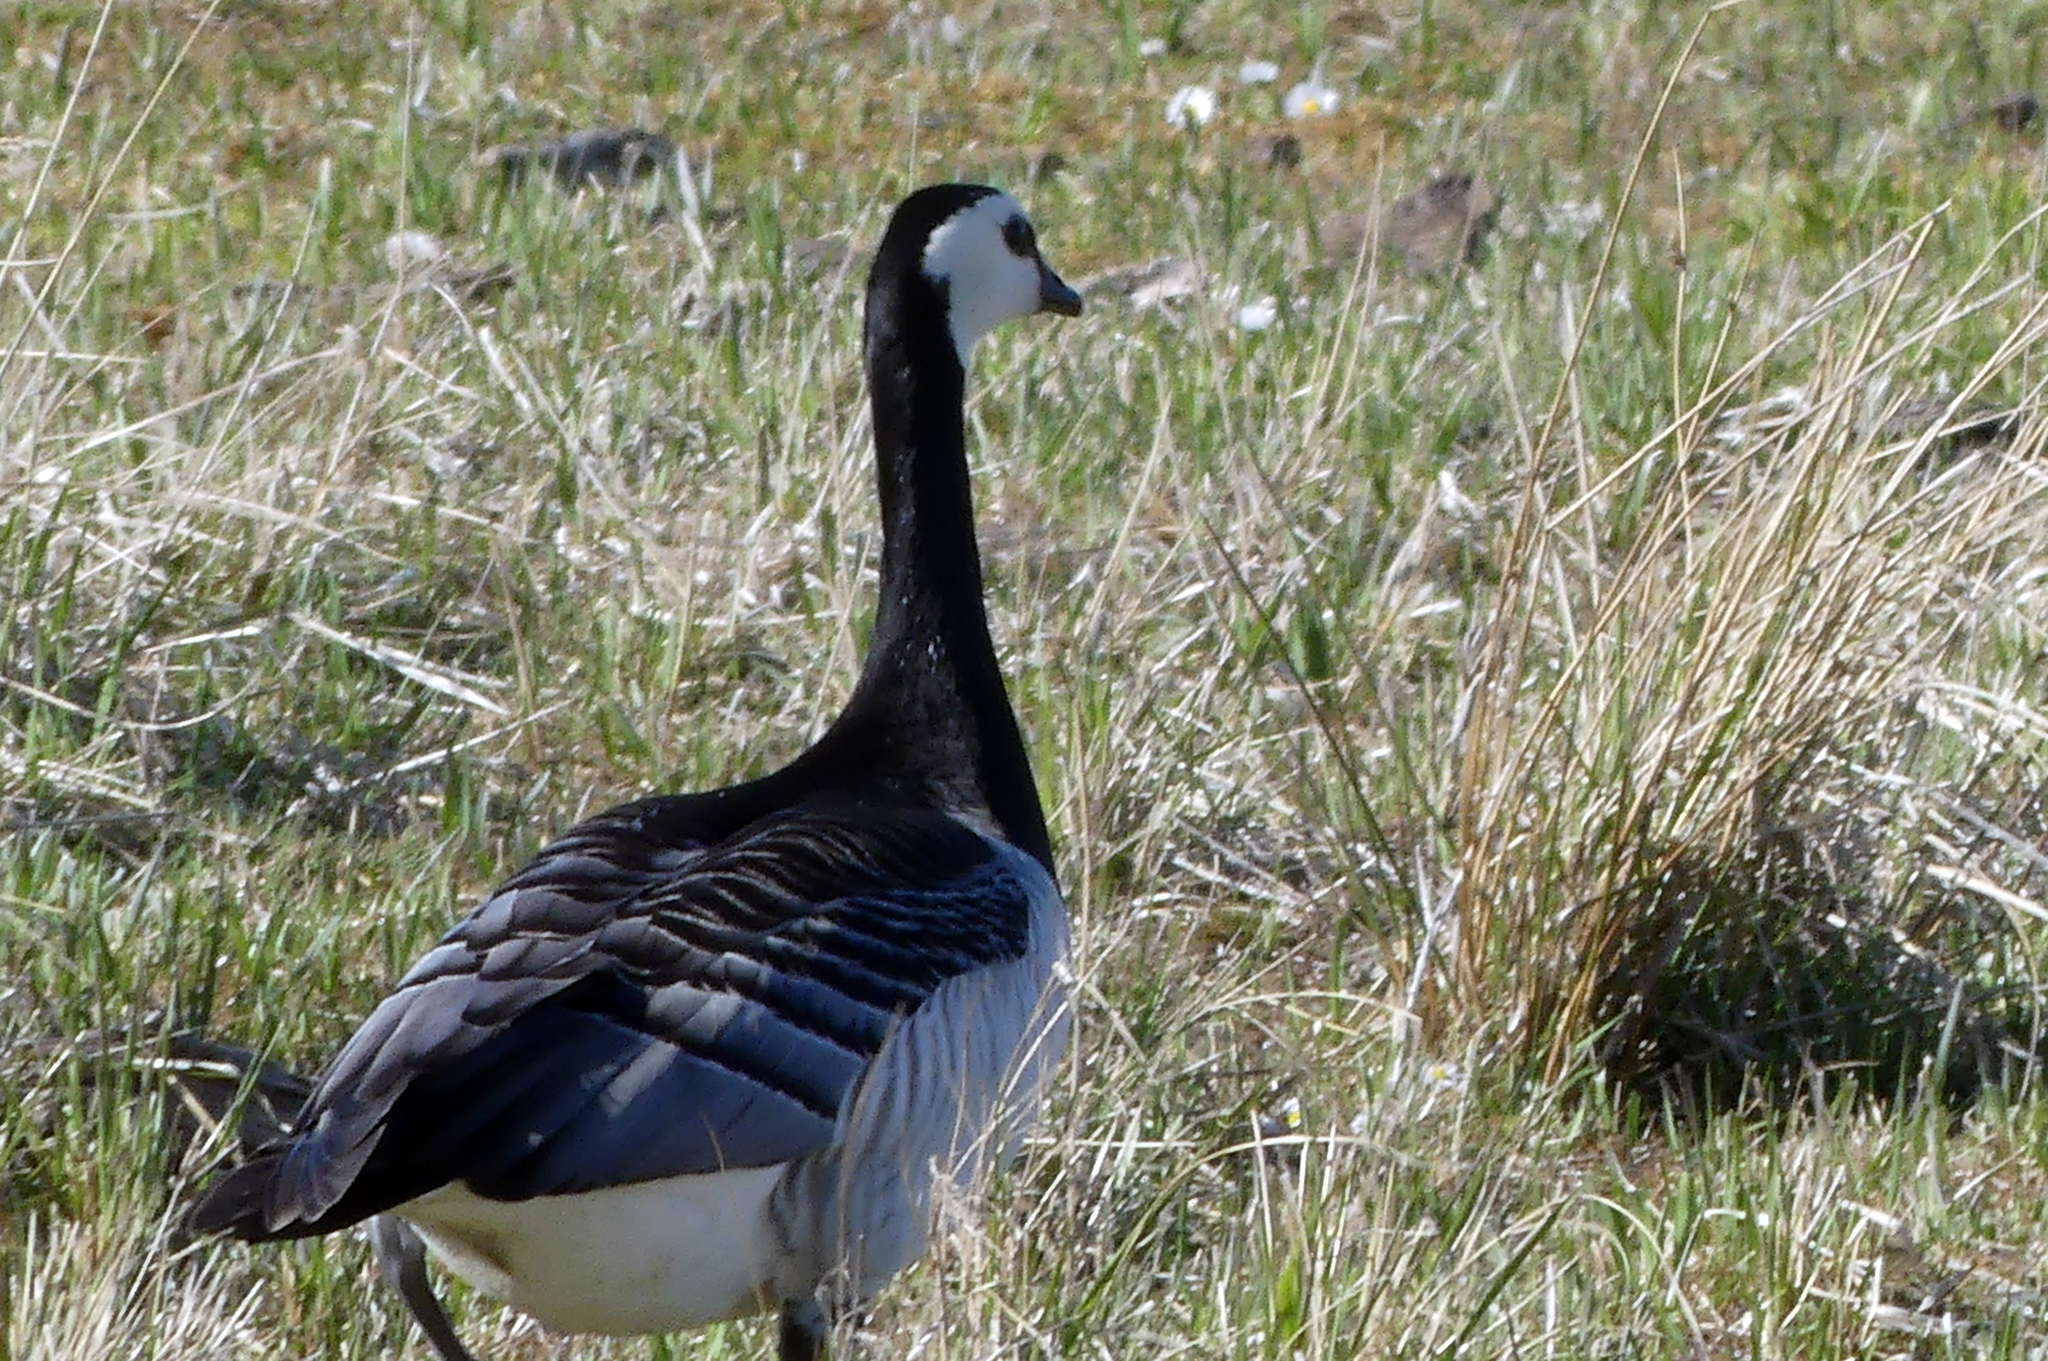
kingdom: Animalia
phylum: Chordata
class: Aves
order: Anseriformes
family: Anatidae
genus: Branta
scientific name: Branta leucopsis
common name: Barnacle goose
